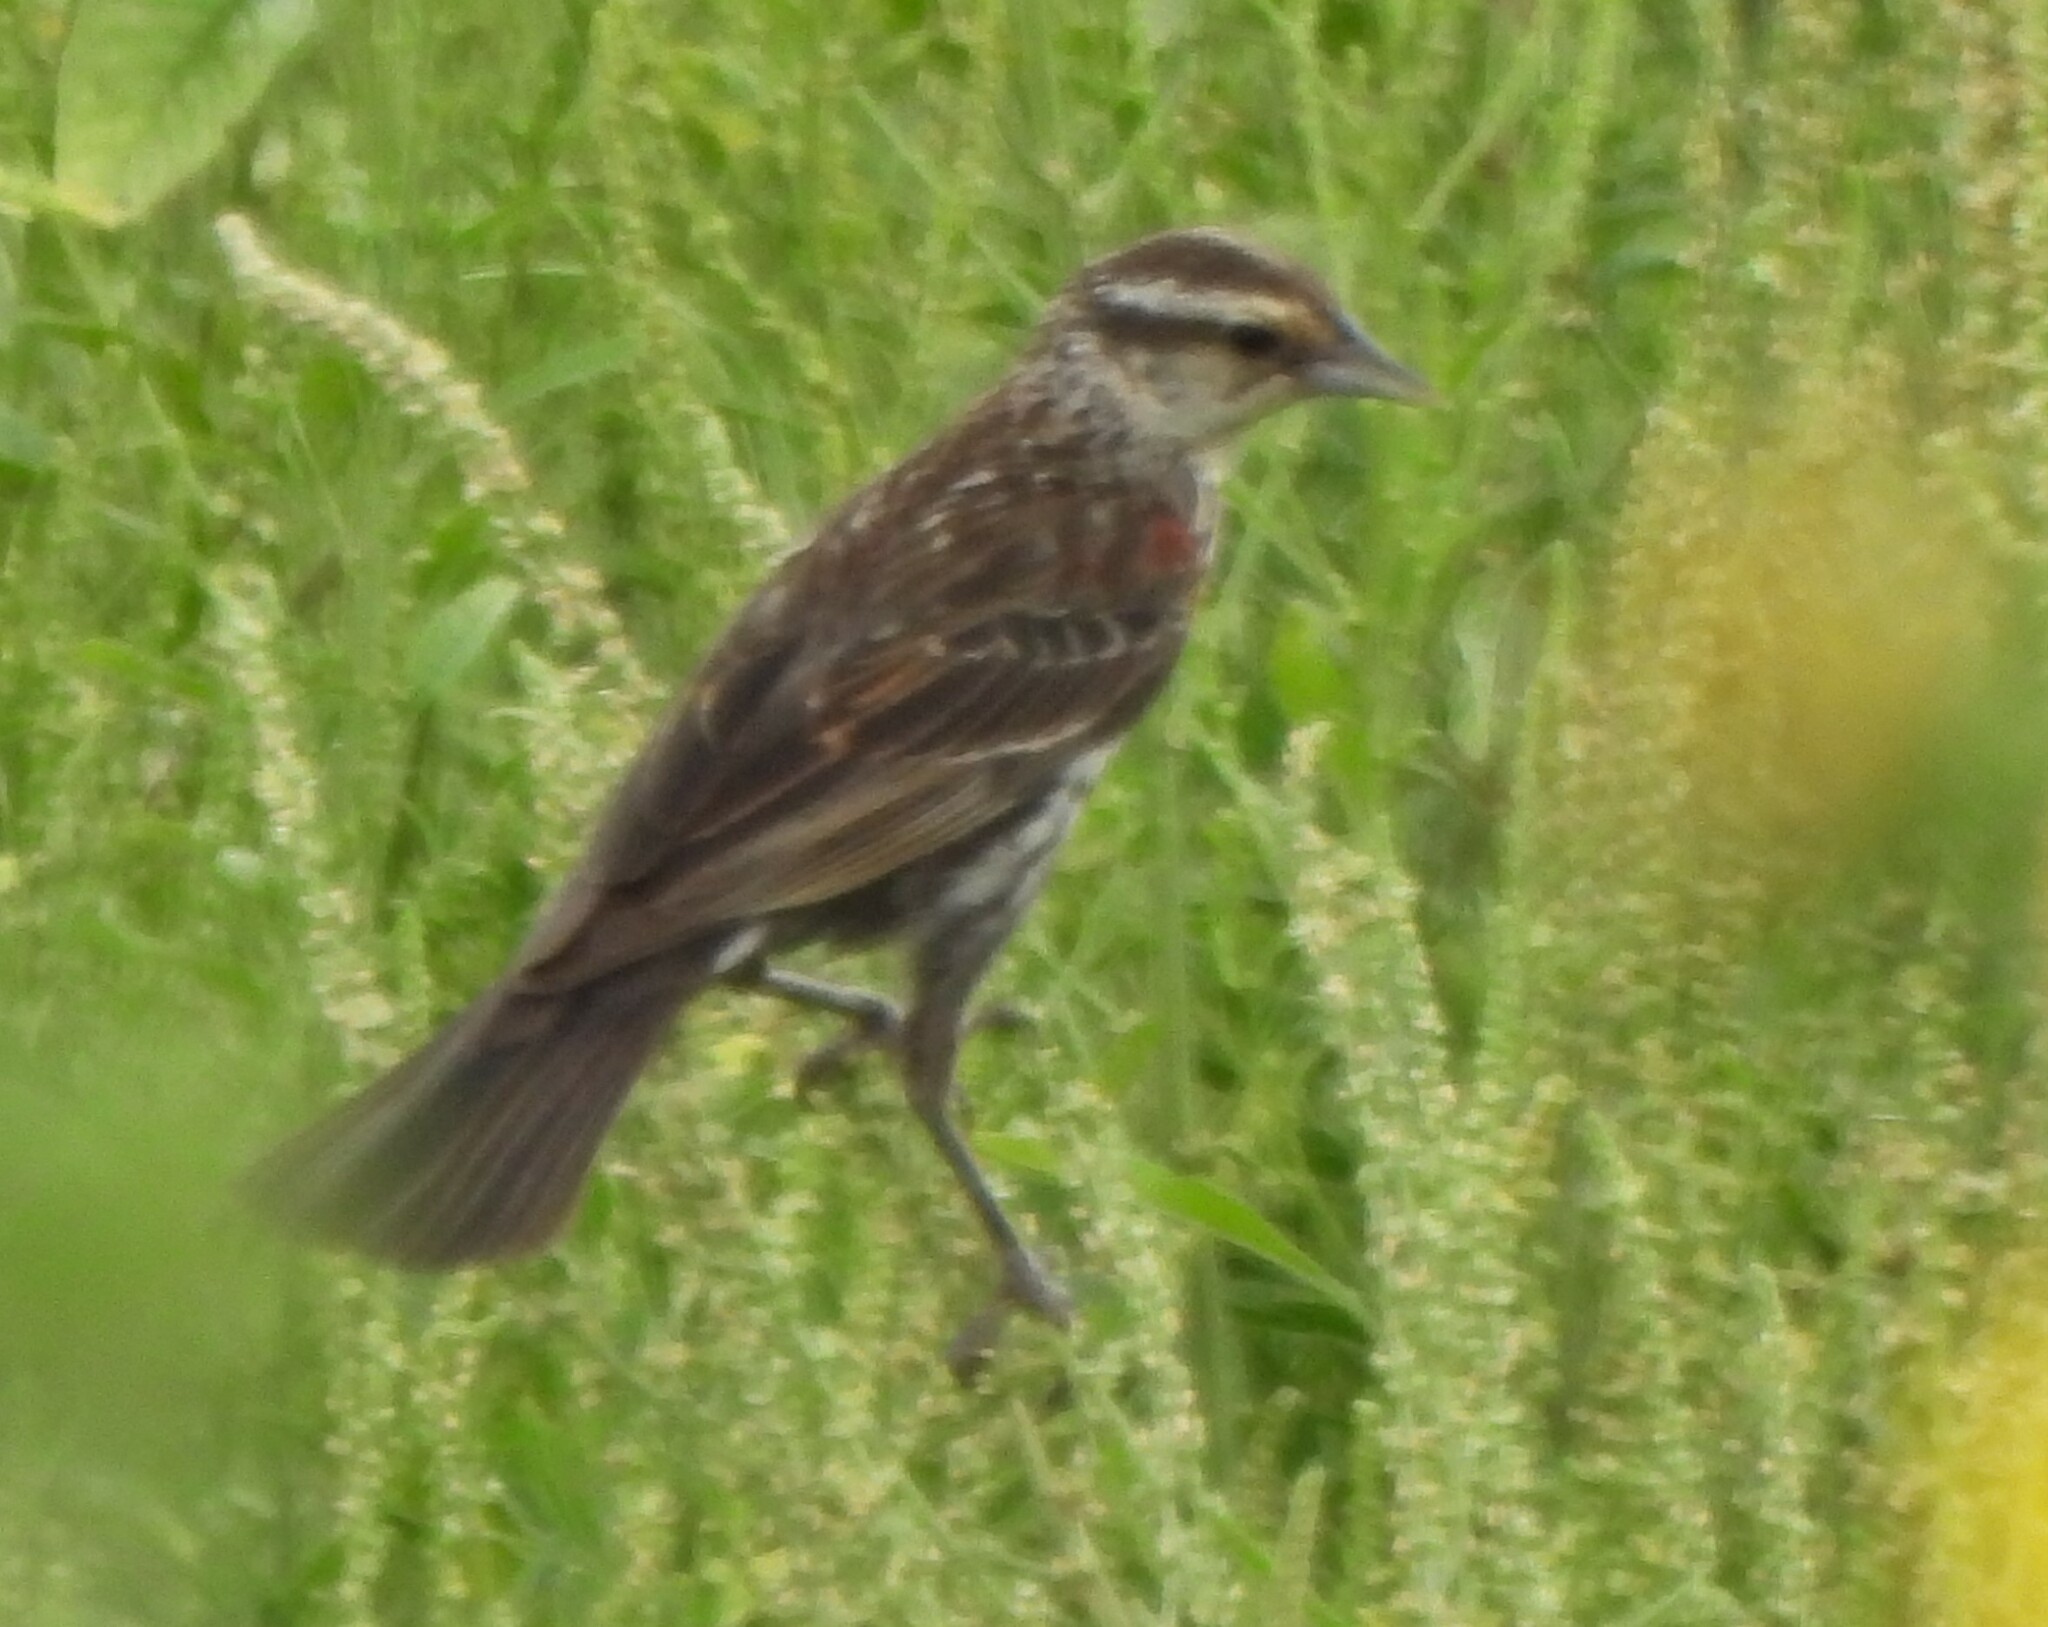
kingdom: Animalia
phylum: Chordata
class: Aves
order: Passeriformes
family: Icteridae
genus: Agelaius
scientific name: Agelaius phoeniceus
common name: Red-winged blackbird
